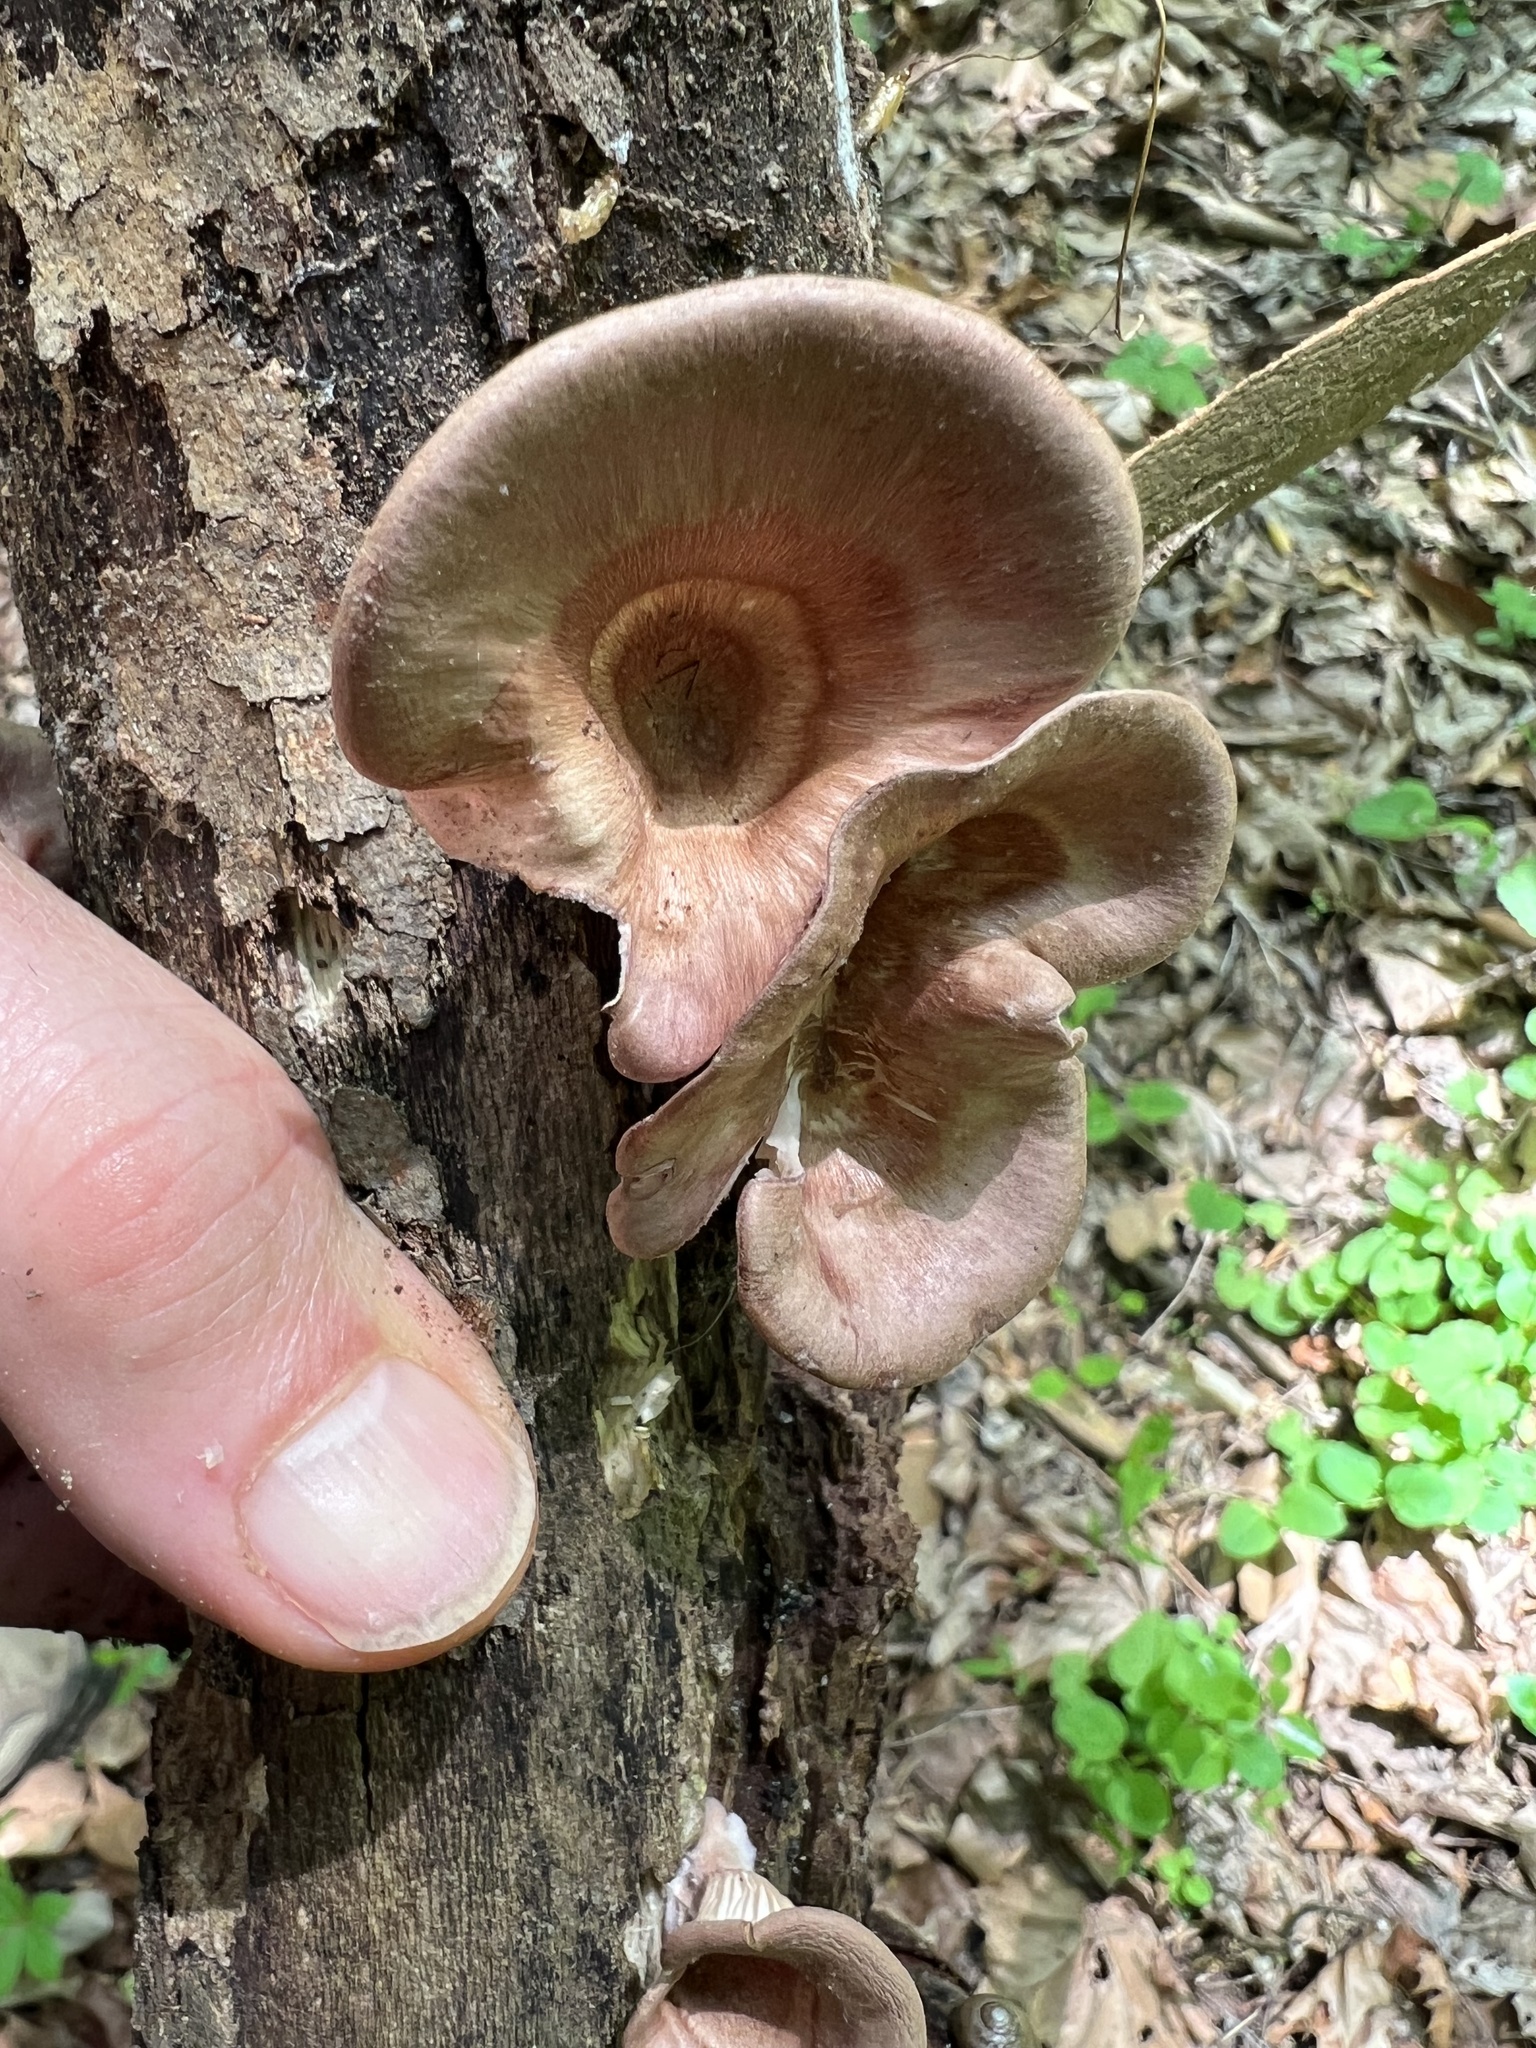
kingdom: Fungi
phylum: Basidiomycota
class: Agaricomycetes
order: Polyporales
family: Panaceae
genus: Panus
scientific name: Panus conchatus
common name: Lilac oysterling
